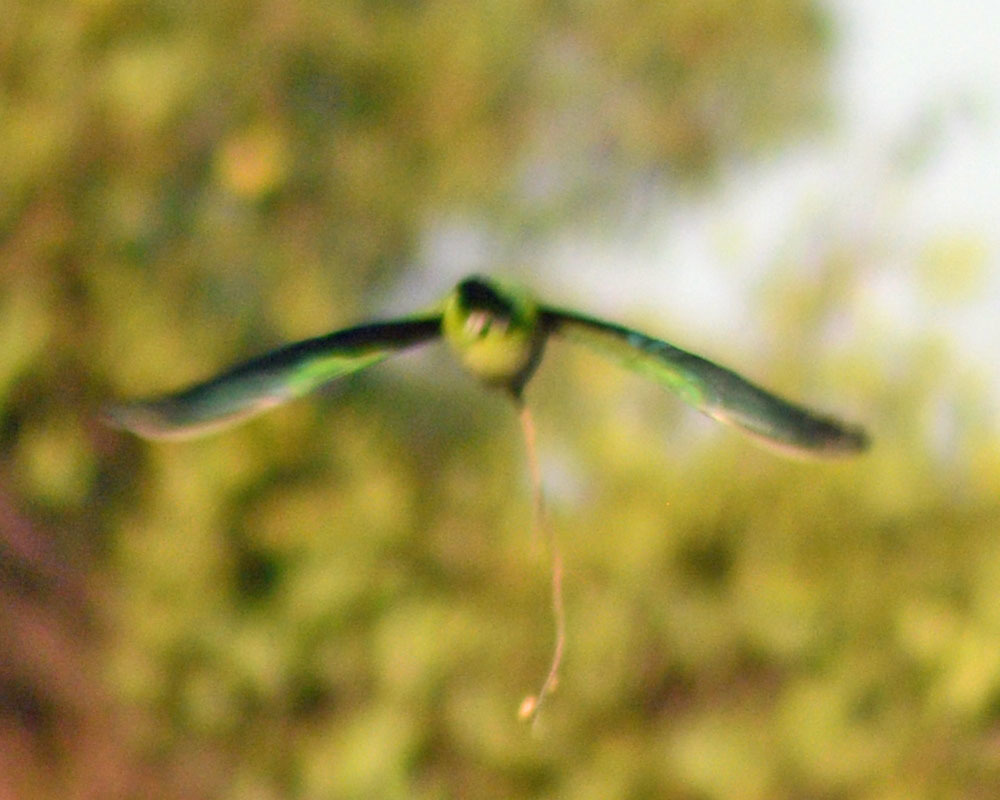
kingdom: Animalia
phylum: Chordata
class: Aves
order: Psittaciformes
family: Psittacidae
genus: Myiopsitta
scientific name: Myiopsitta monachus
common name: Monk parakeet
